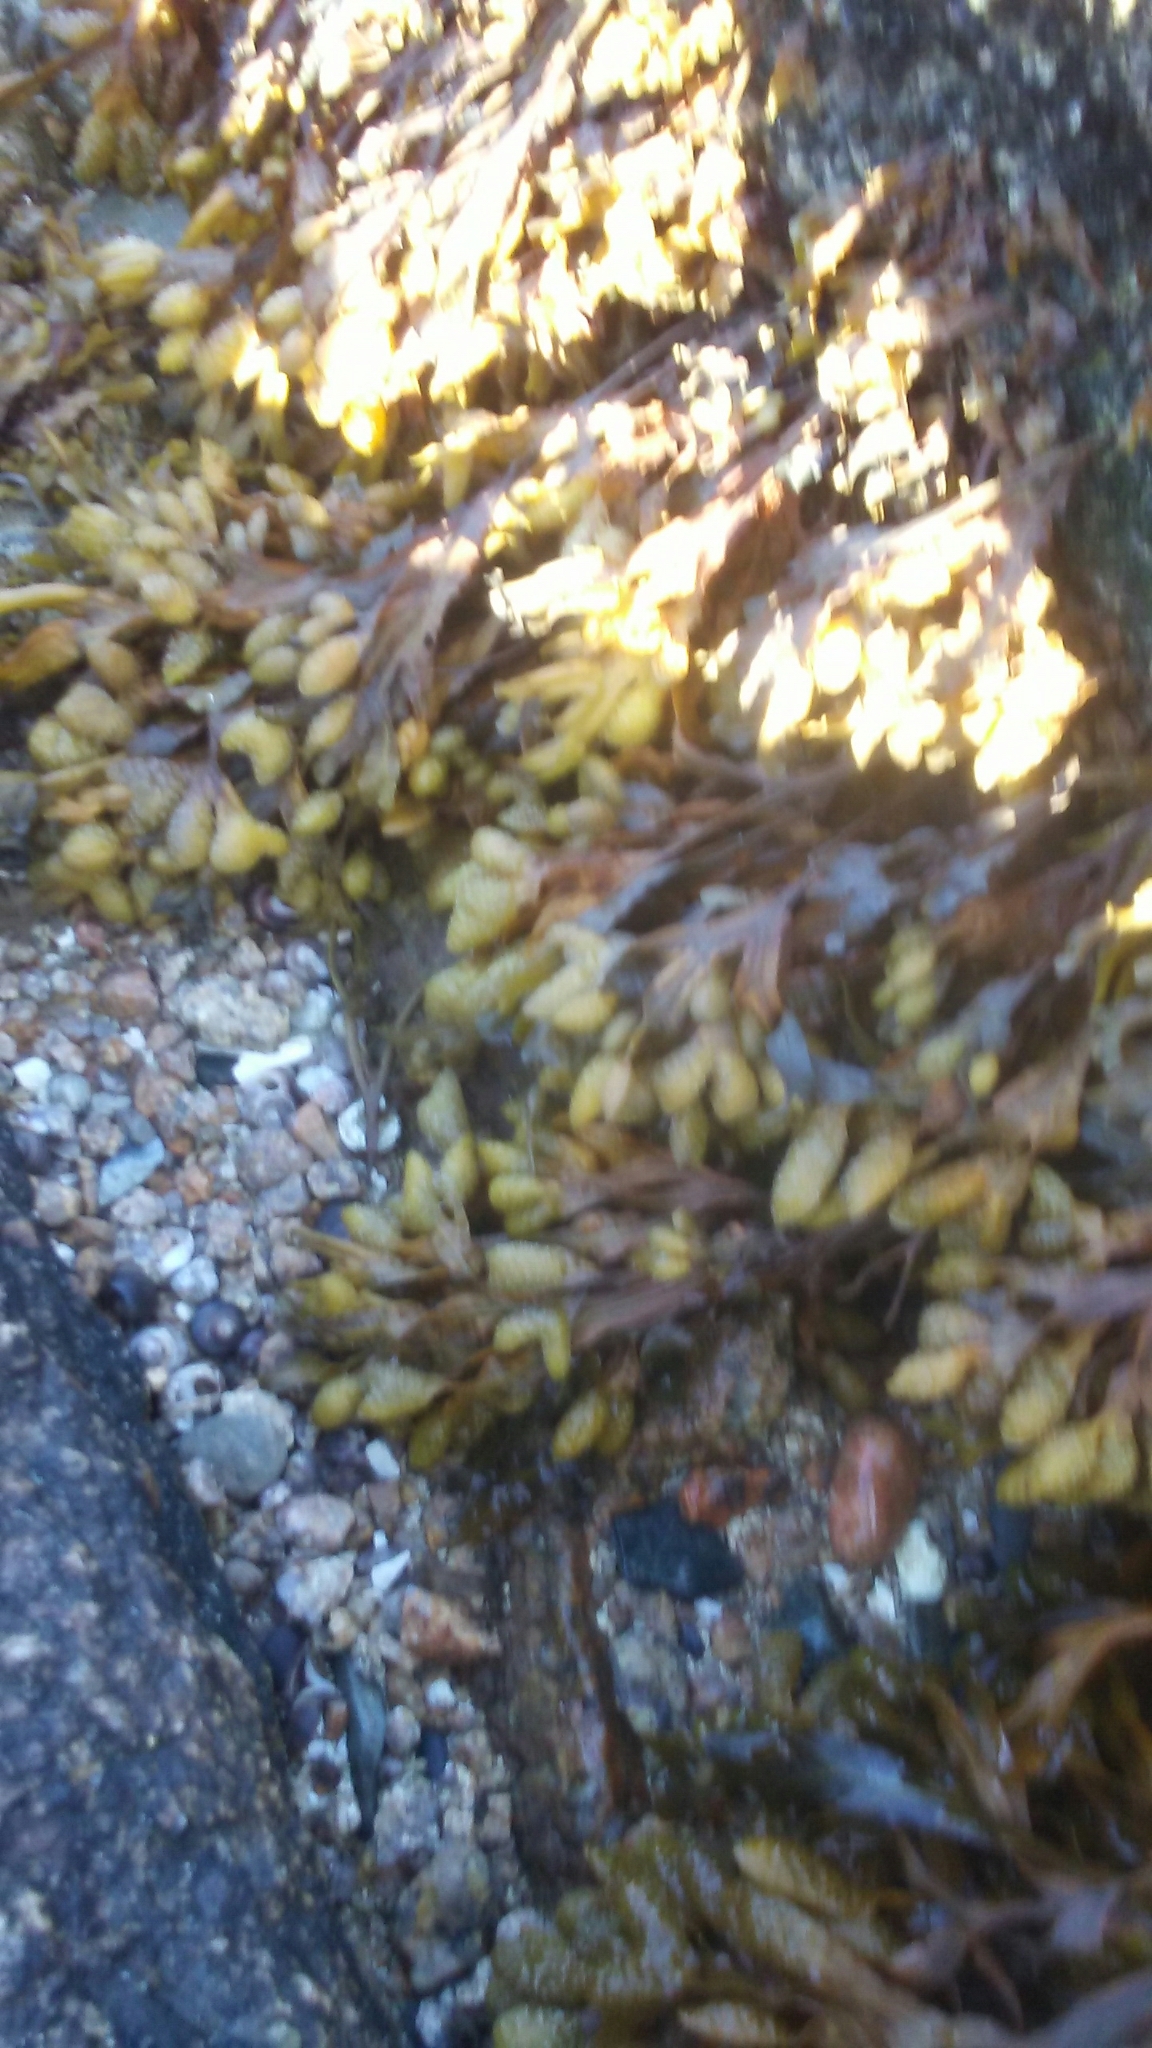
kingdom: Chromista
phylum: Ochrophyta
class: Phaeophyceae
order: Fucales
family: Fucaceae
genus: Fucus
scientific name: Fucus spiralis
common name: Spiral wrack
